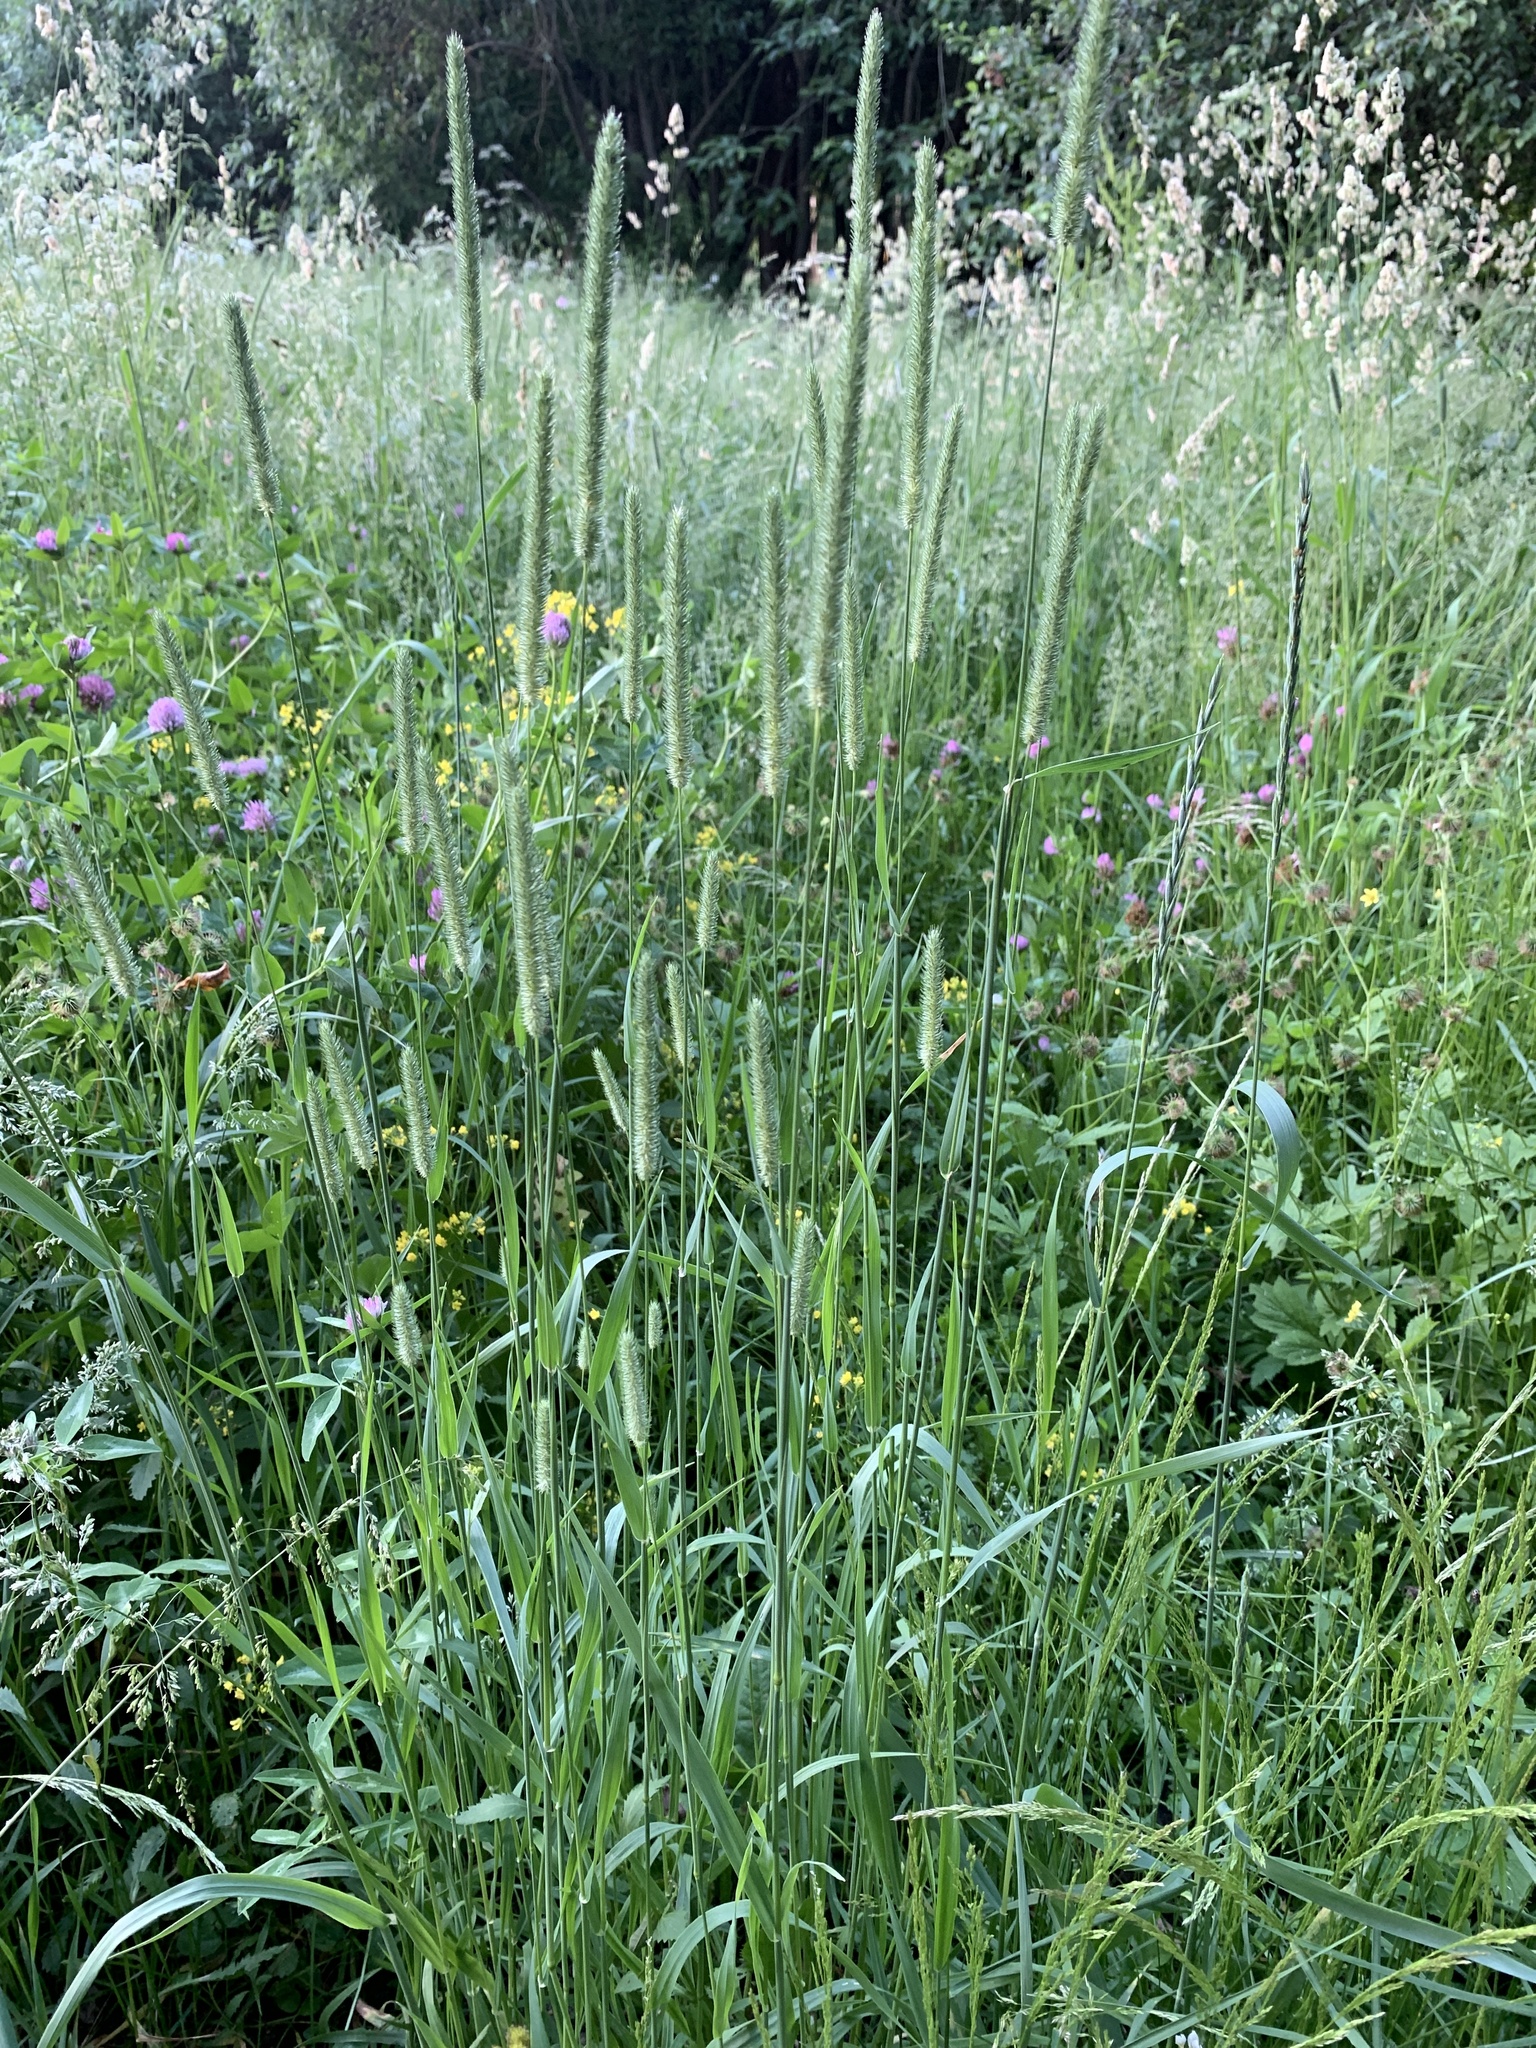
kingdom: Plantae
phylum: Tracheophyta
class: Liliopsida
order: Poales
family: Poaceae
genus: Phleum
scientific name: Phleum pratense
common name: Timothy grass
